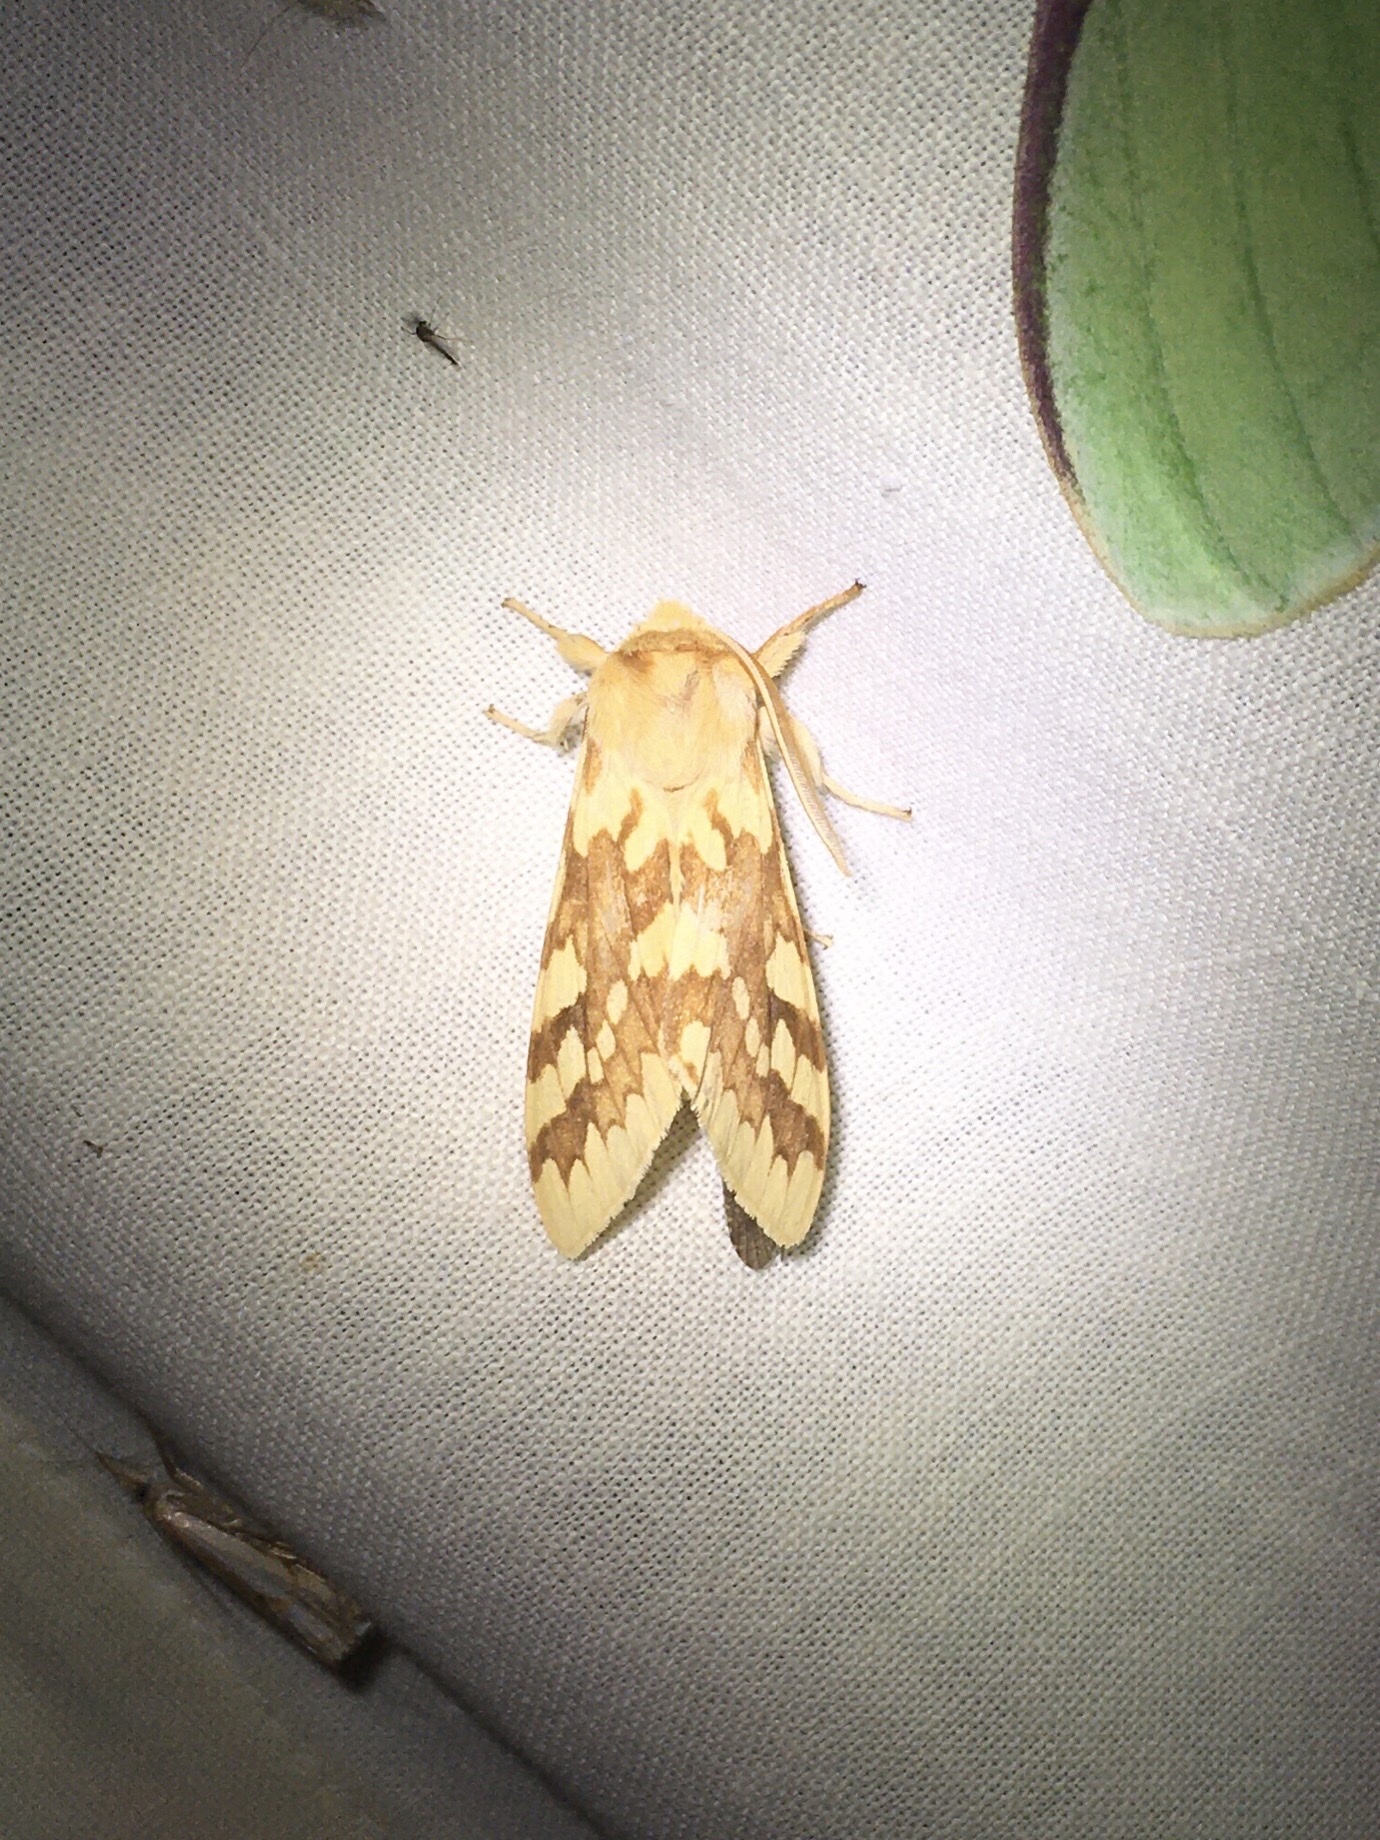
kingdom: Animalia
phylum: Arthropoda
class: Insecta
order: Lepidoptera
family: Erebidae
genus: Lophocampa
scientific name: Lophocampa maculata
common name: Spotted tussock moth
